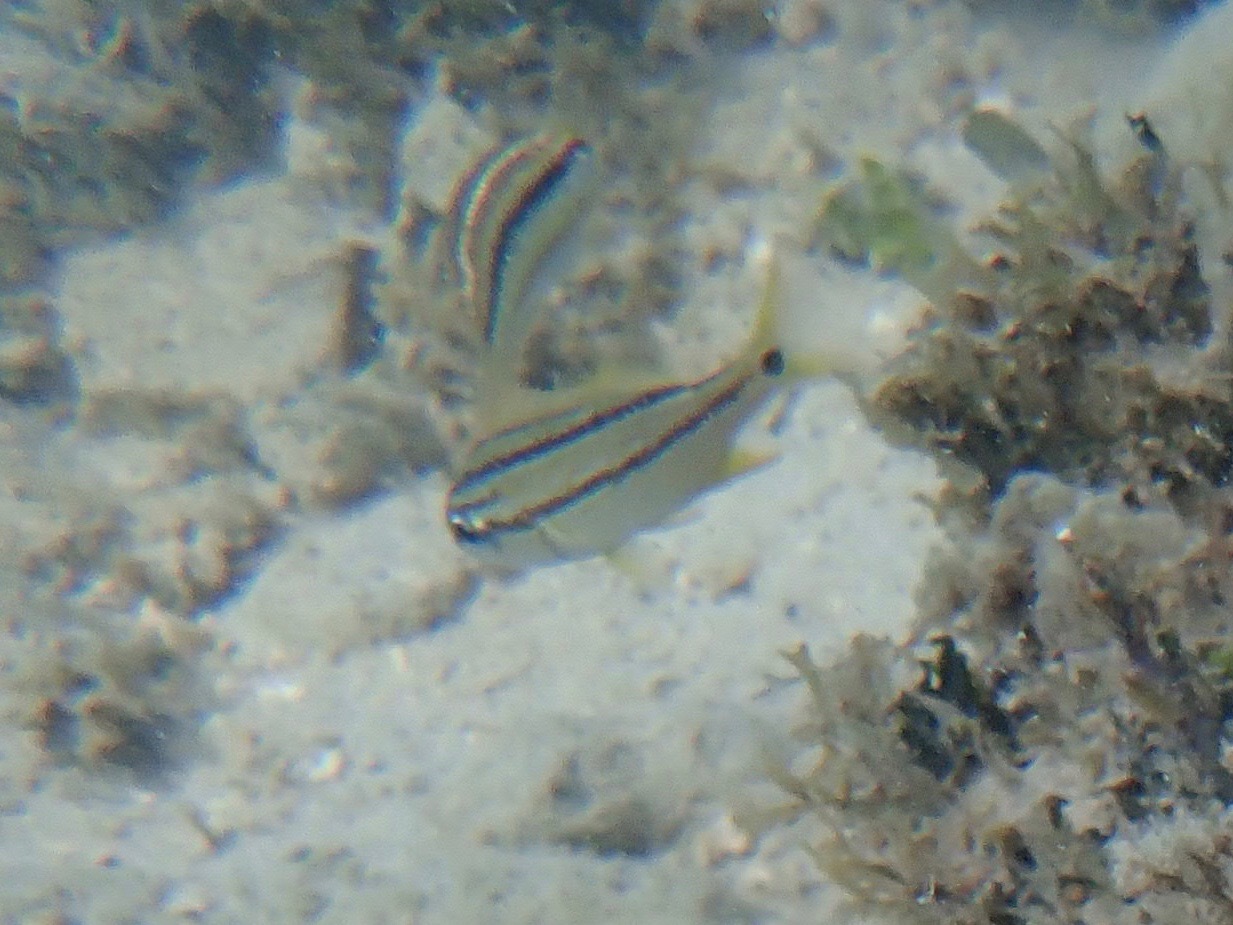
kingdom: Animalia
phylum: Chordata
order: Perciformes
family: Haemulidae
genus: Haemulon
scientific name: Haemulon flavolineatum
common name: French grunt
